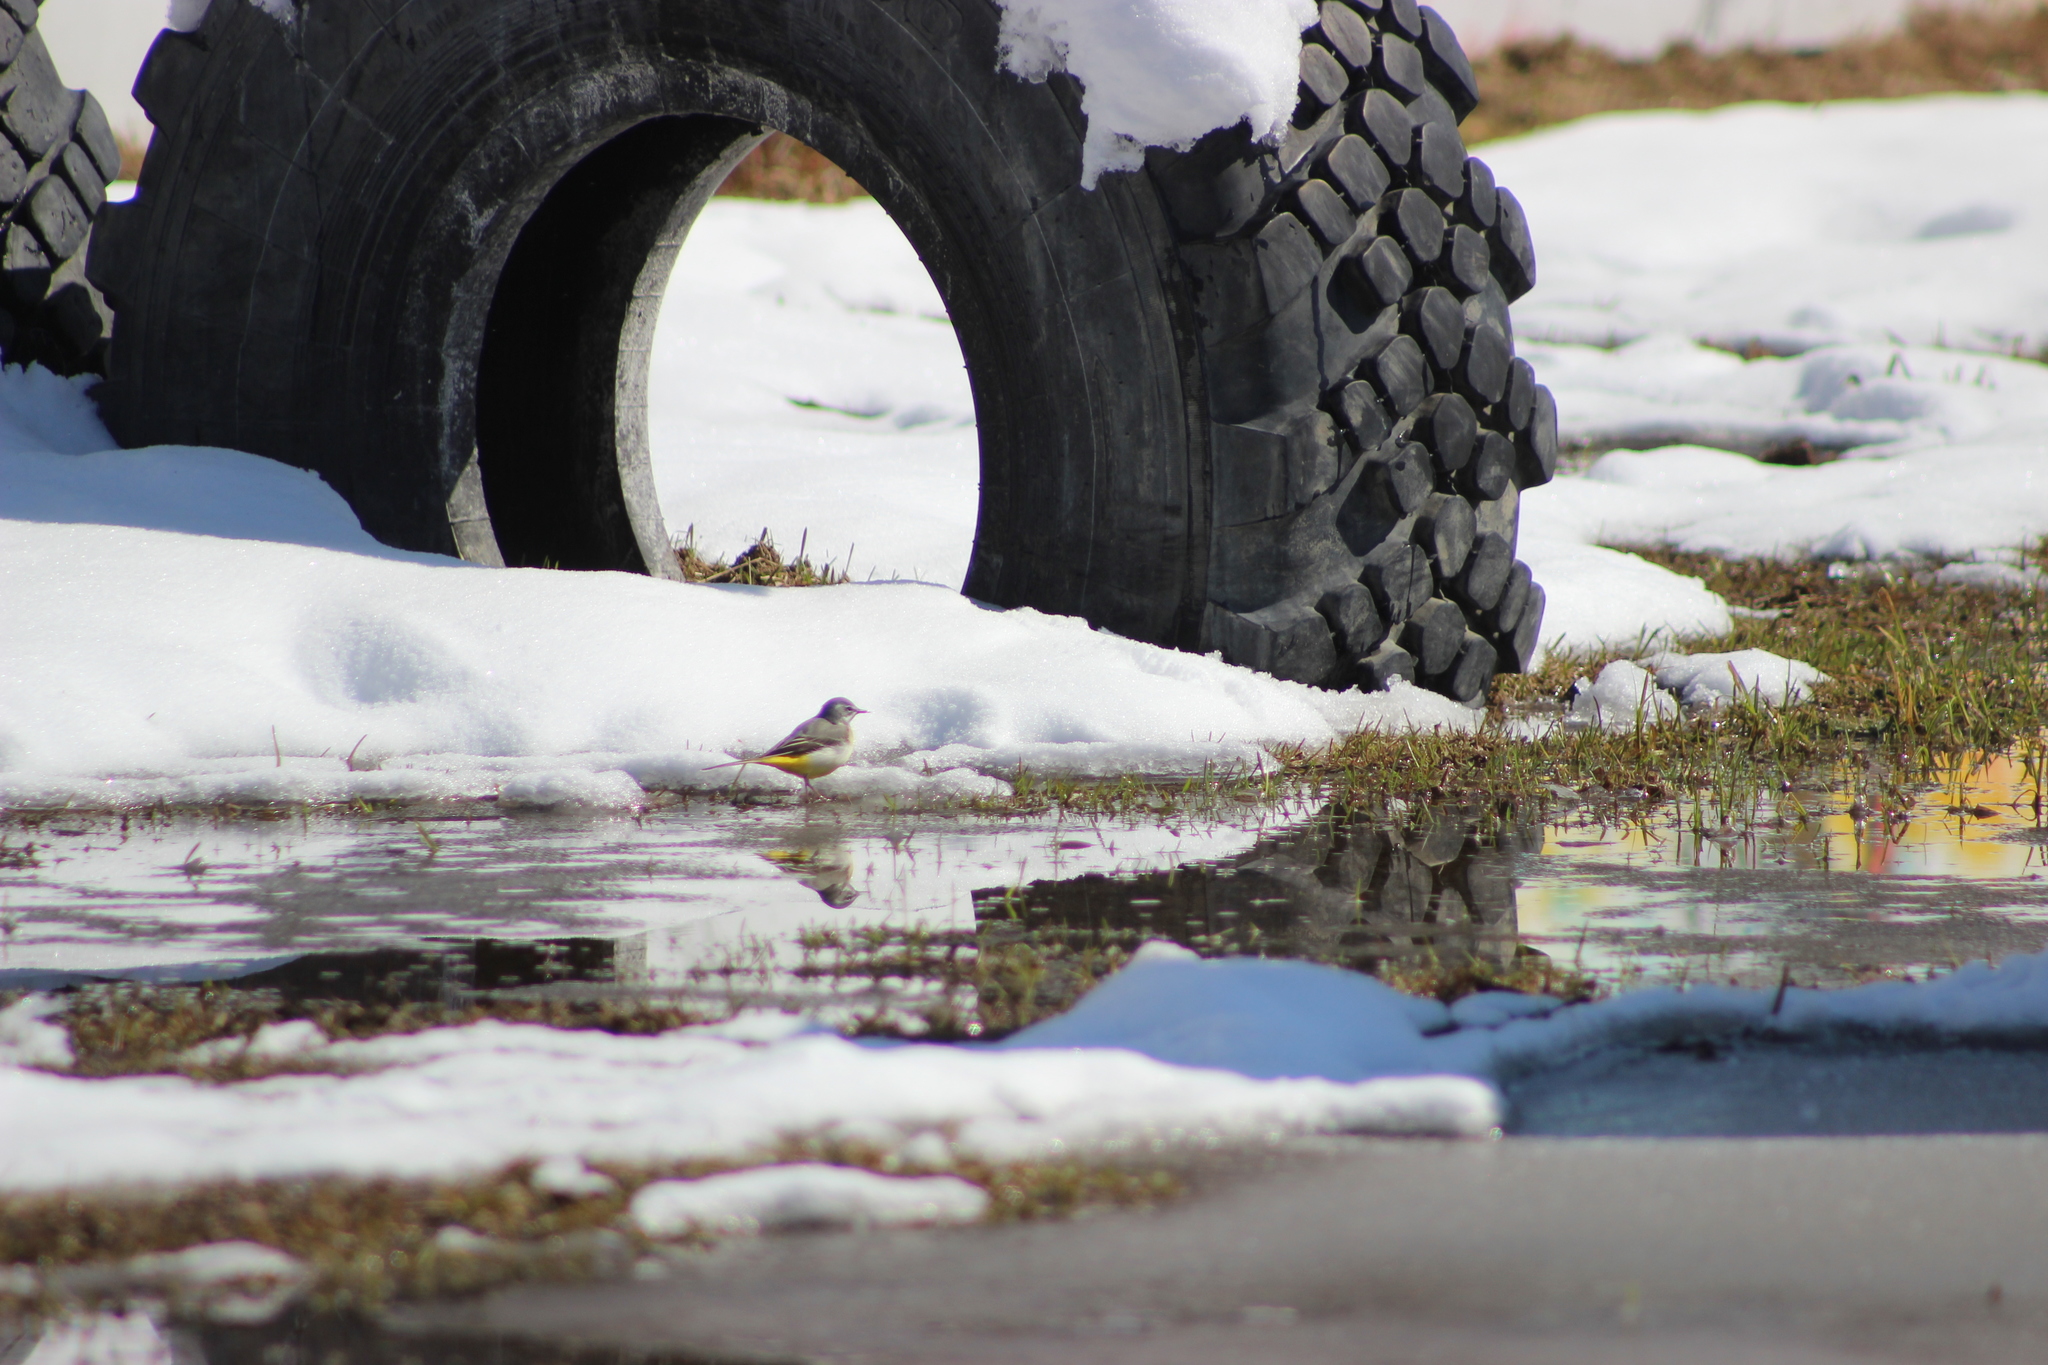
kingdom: Animalia
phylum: Chordata
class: Aves
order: Passeriformes
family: Motacillidae
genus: Motacilla
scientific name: Motacilla cinerea
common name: Grey wagtail
